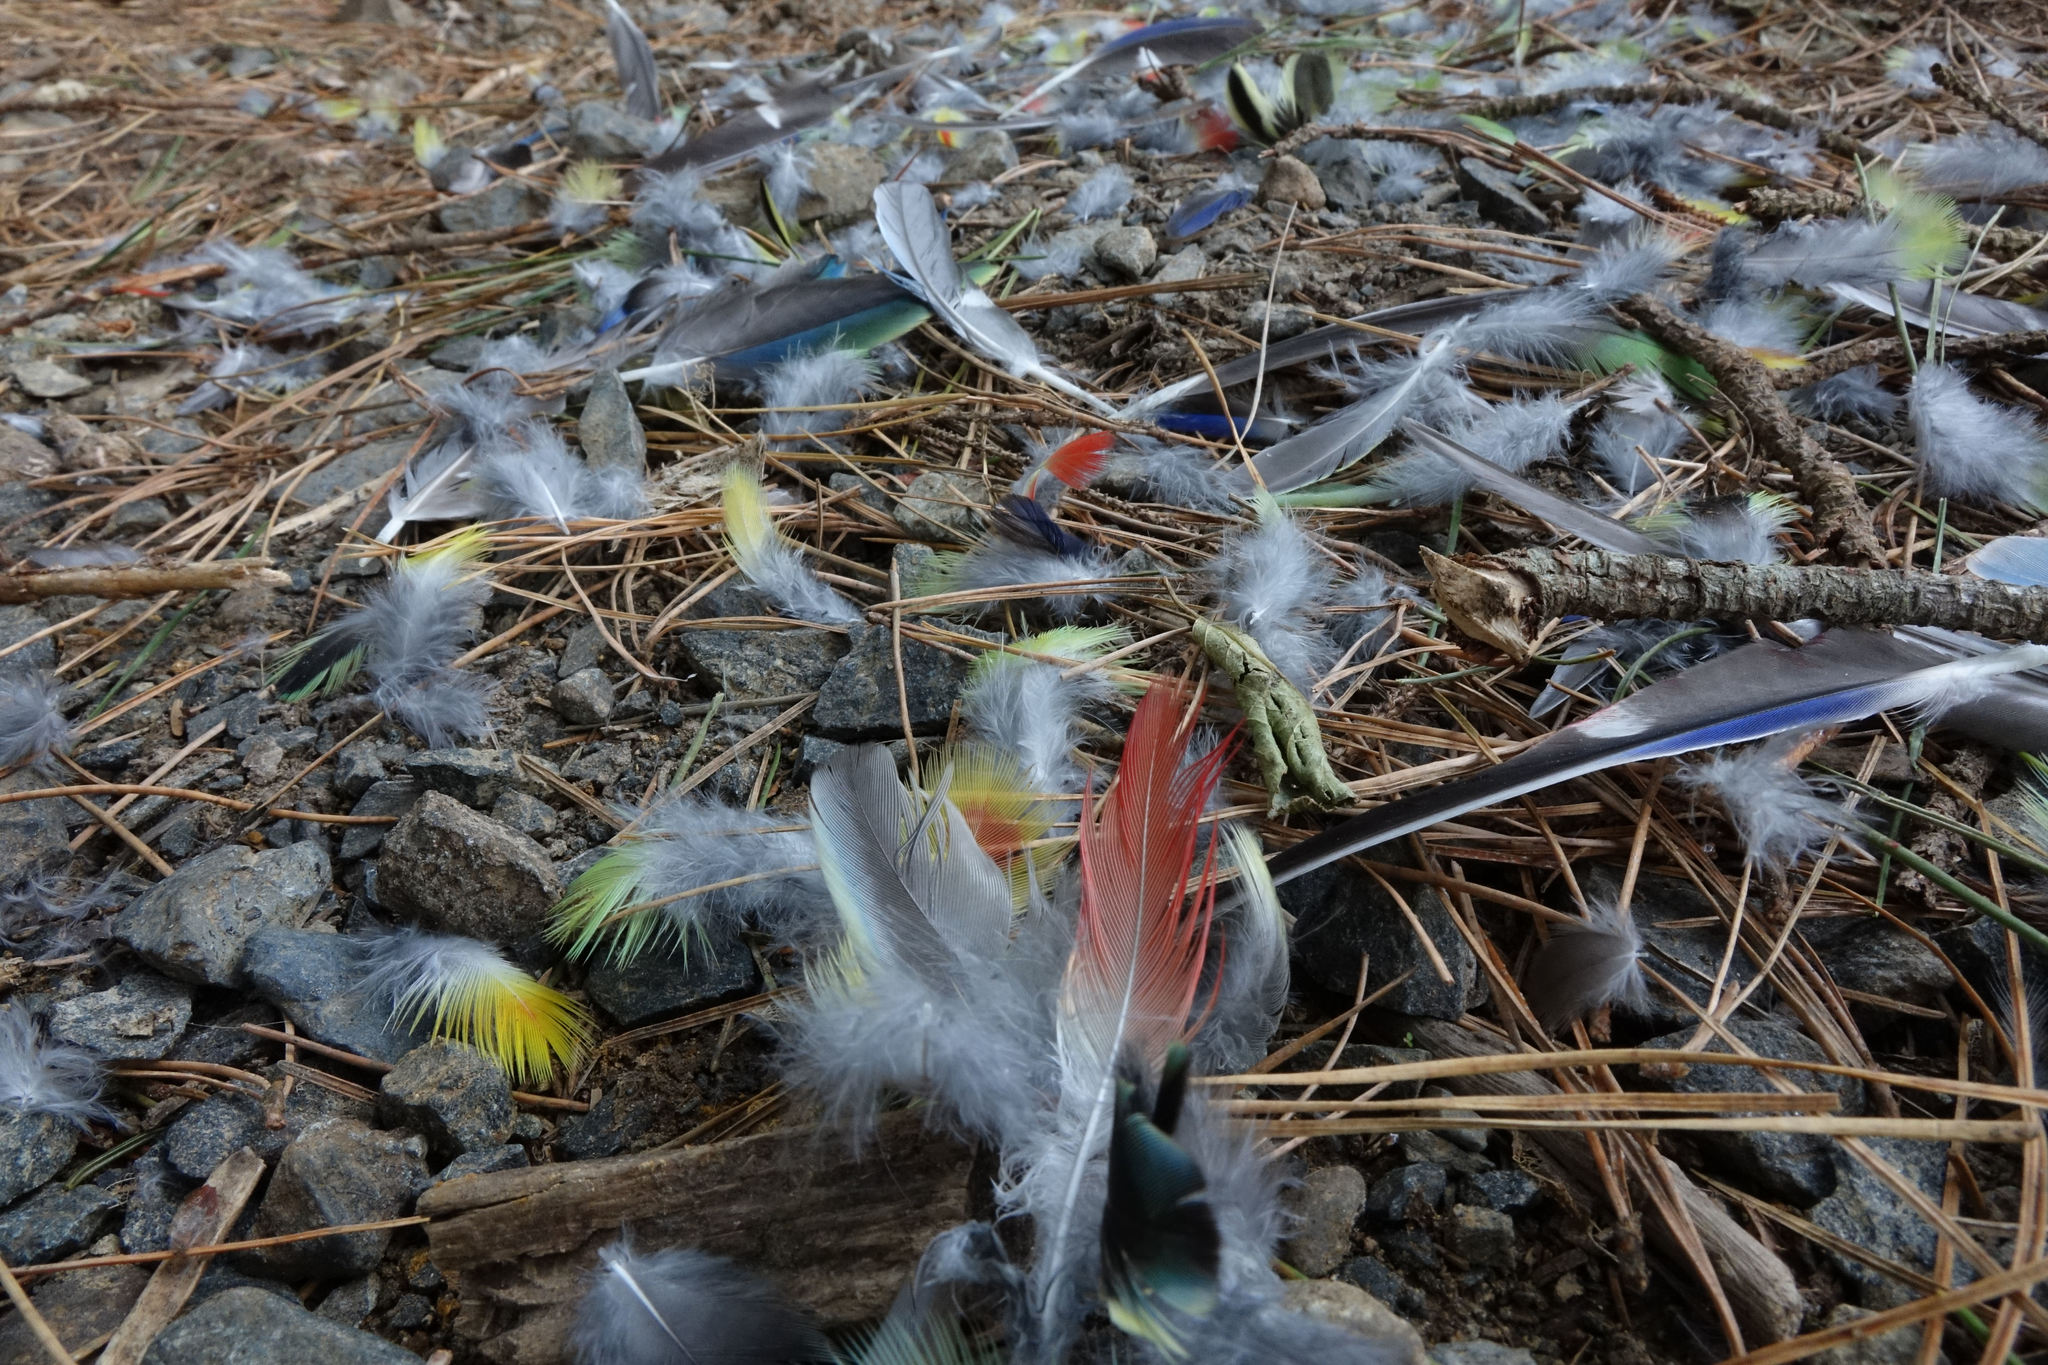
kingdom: Animalia
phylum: Chordata
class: Aves
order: Psittaciformes
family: Psittacidae
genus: Platycercus
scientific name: Platycercus eximius
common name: Eastern rosella
